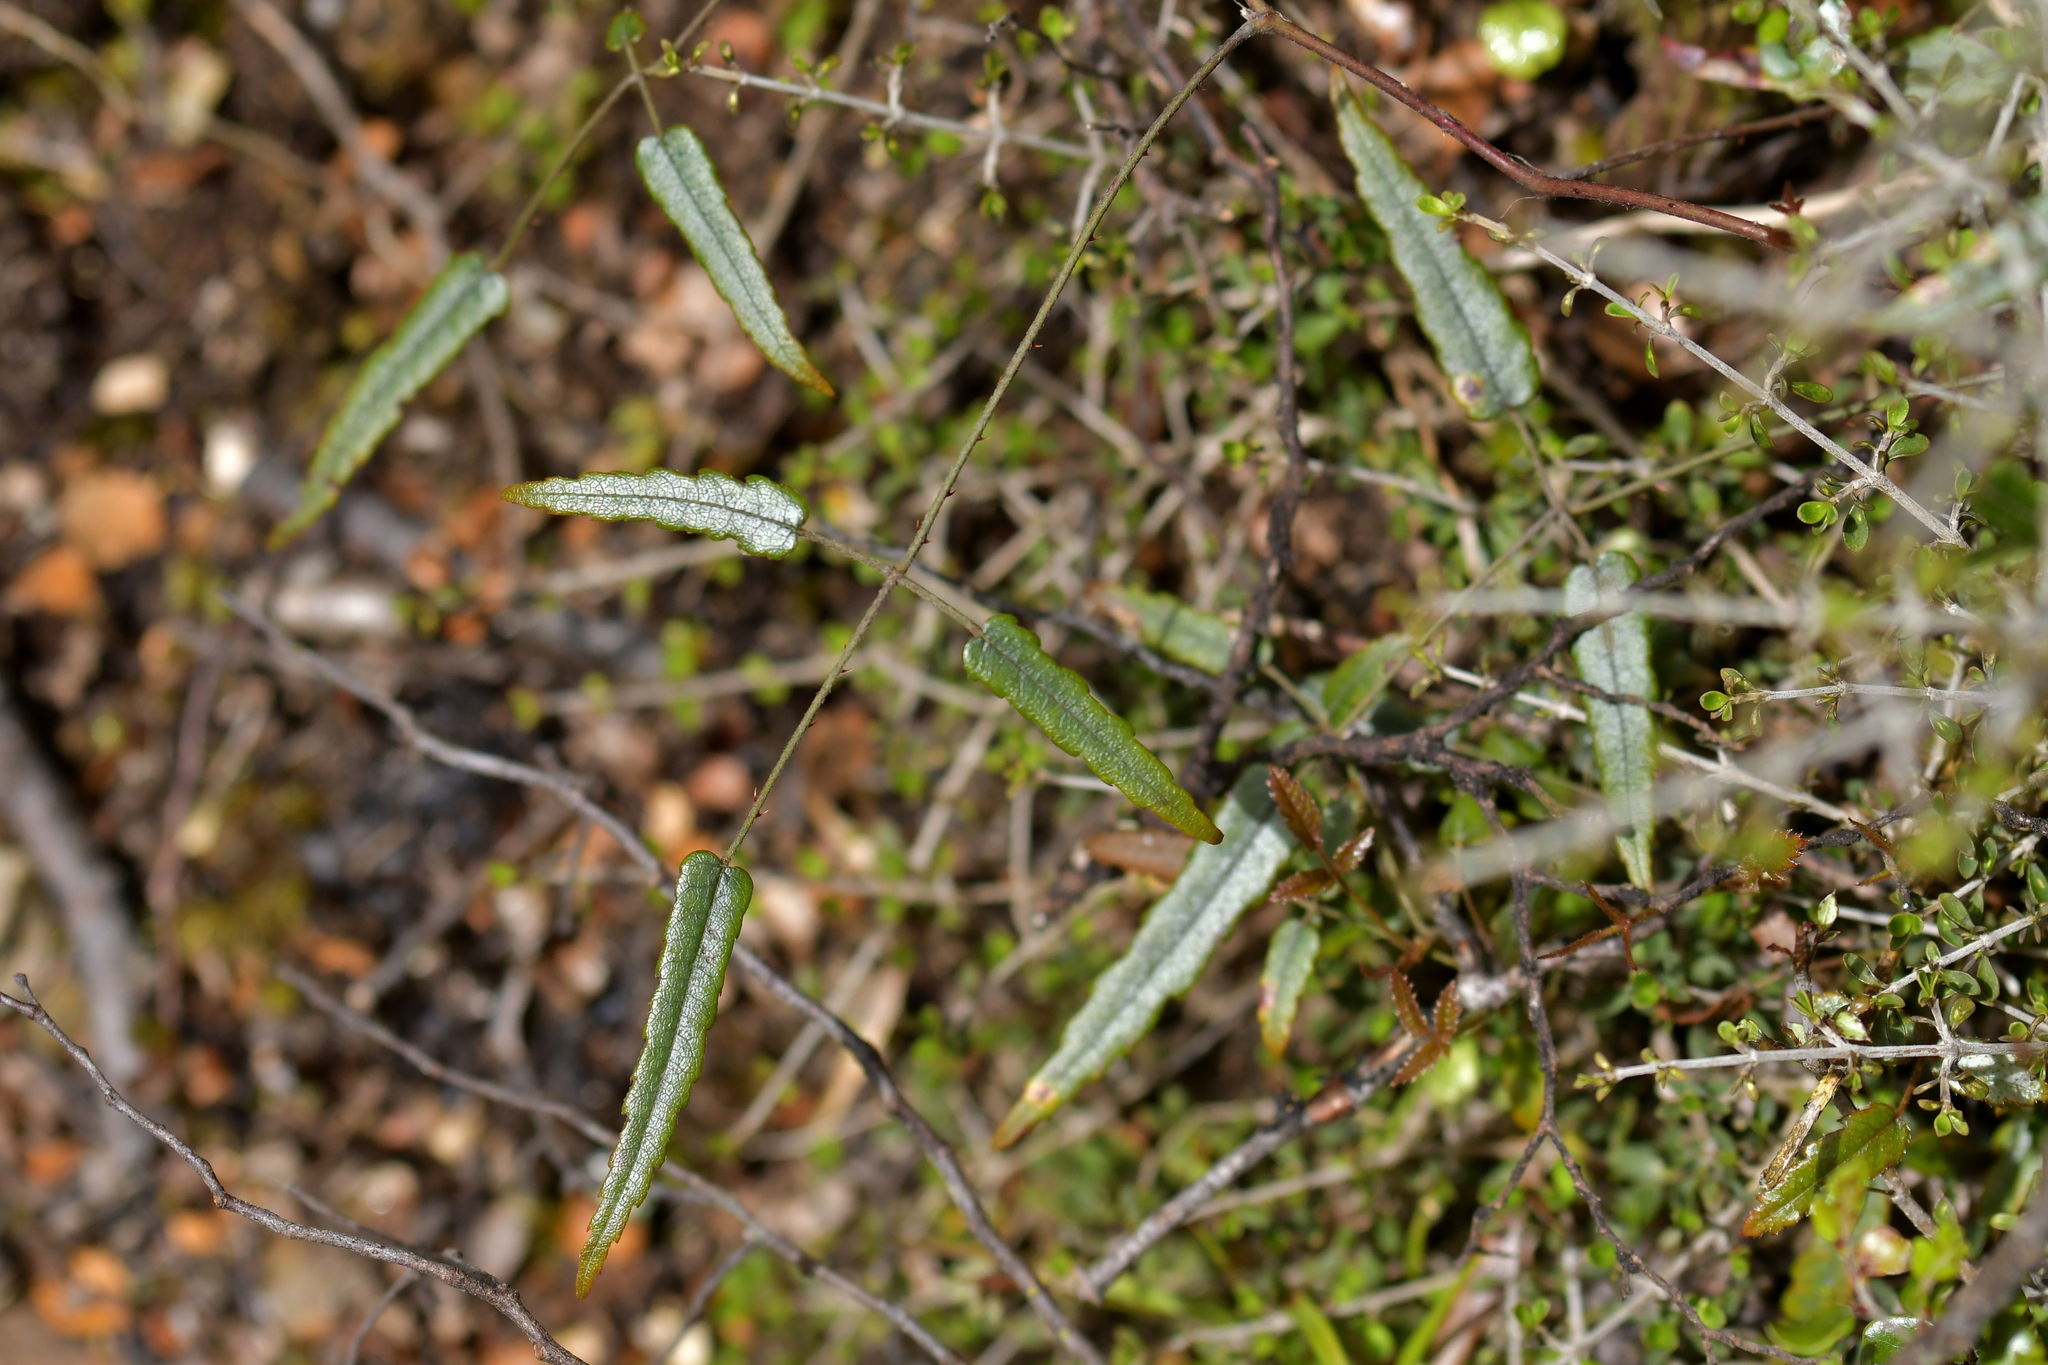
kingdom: Plantae
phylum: Tracheophyta
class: Magnoliopsida
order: Rosales
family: Rosaceae
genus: Rubus
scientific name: Rubus schmidelioides
